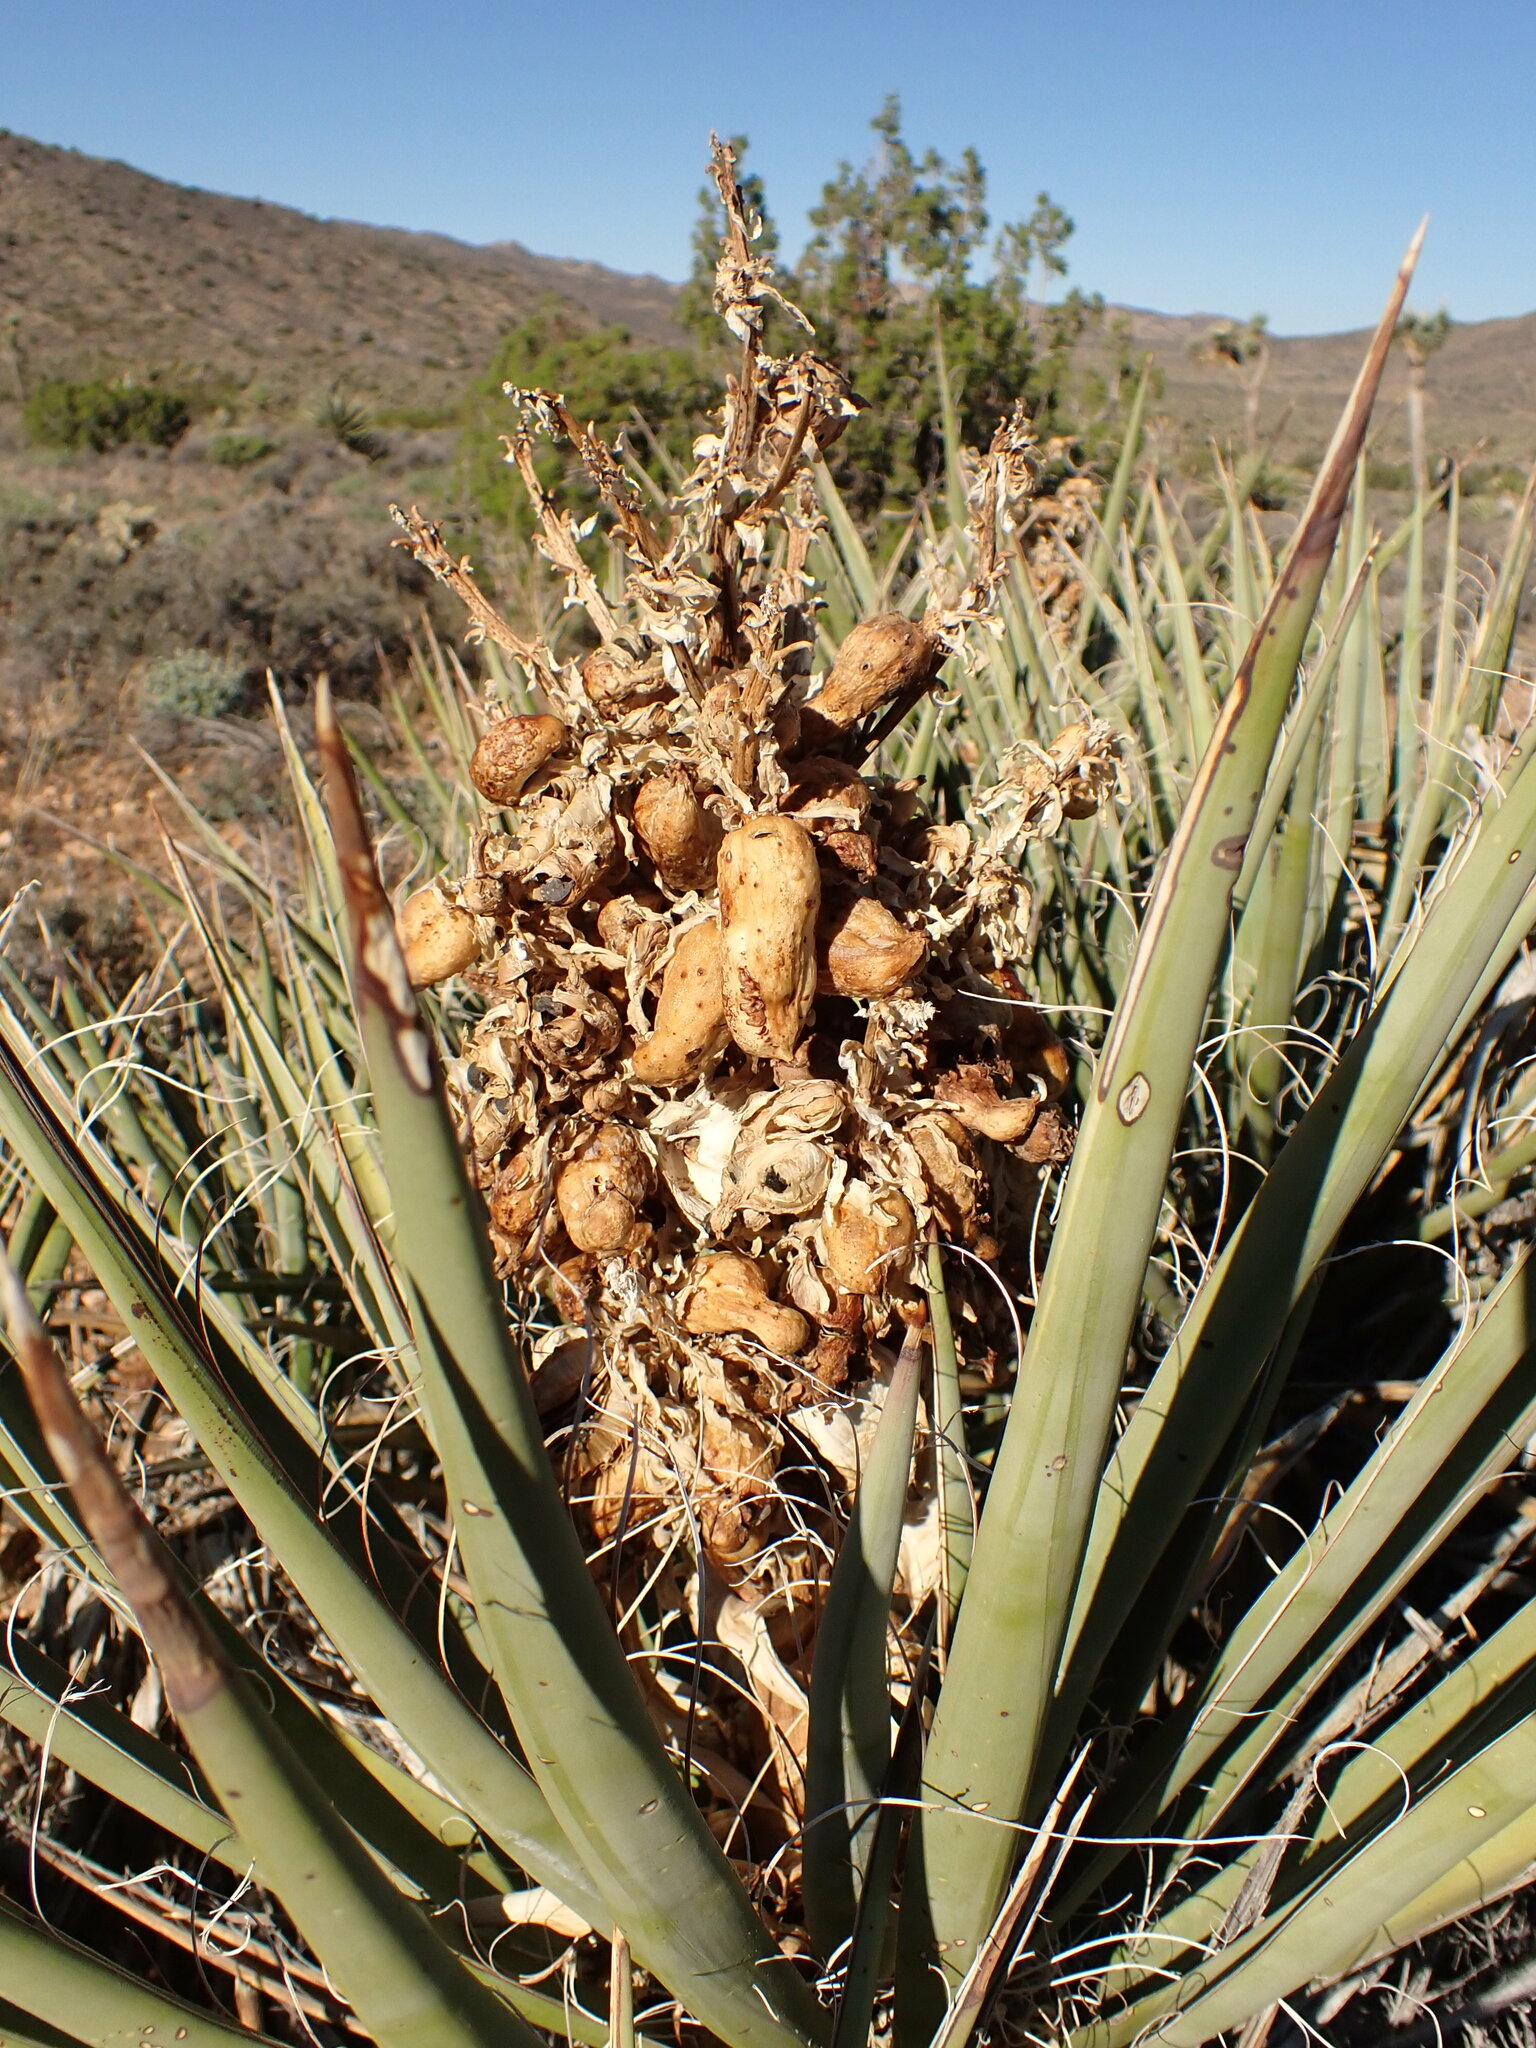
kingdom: Plantae
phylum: Tracheophyta
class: Liliopsida
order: Asparagales
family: Asparagaceae
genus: Yucca
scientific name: Yucca schidigera
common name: Mojave yucca
